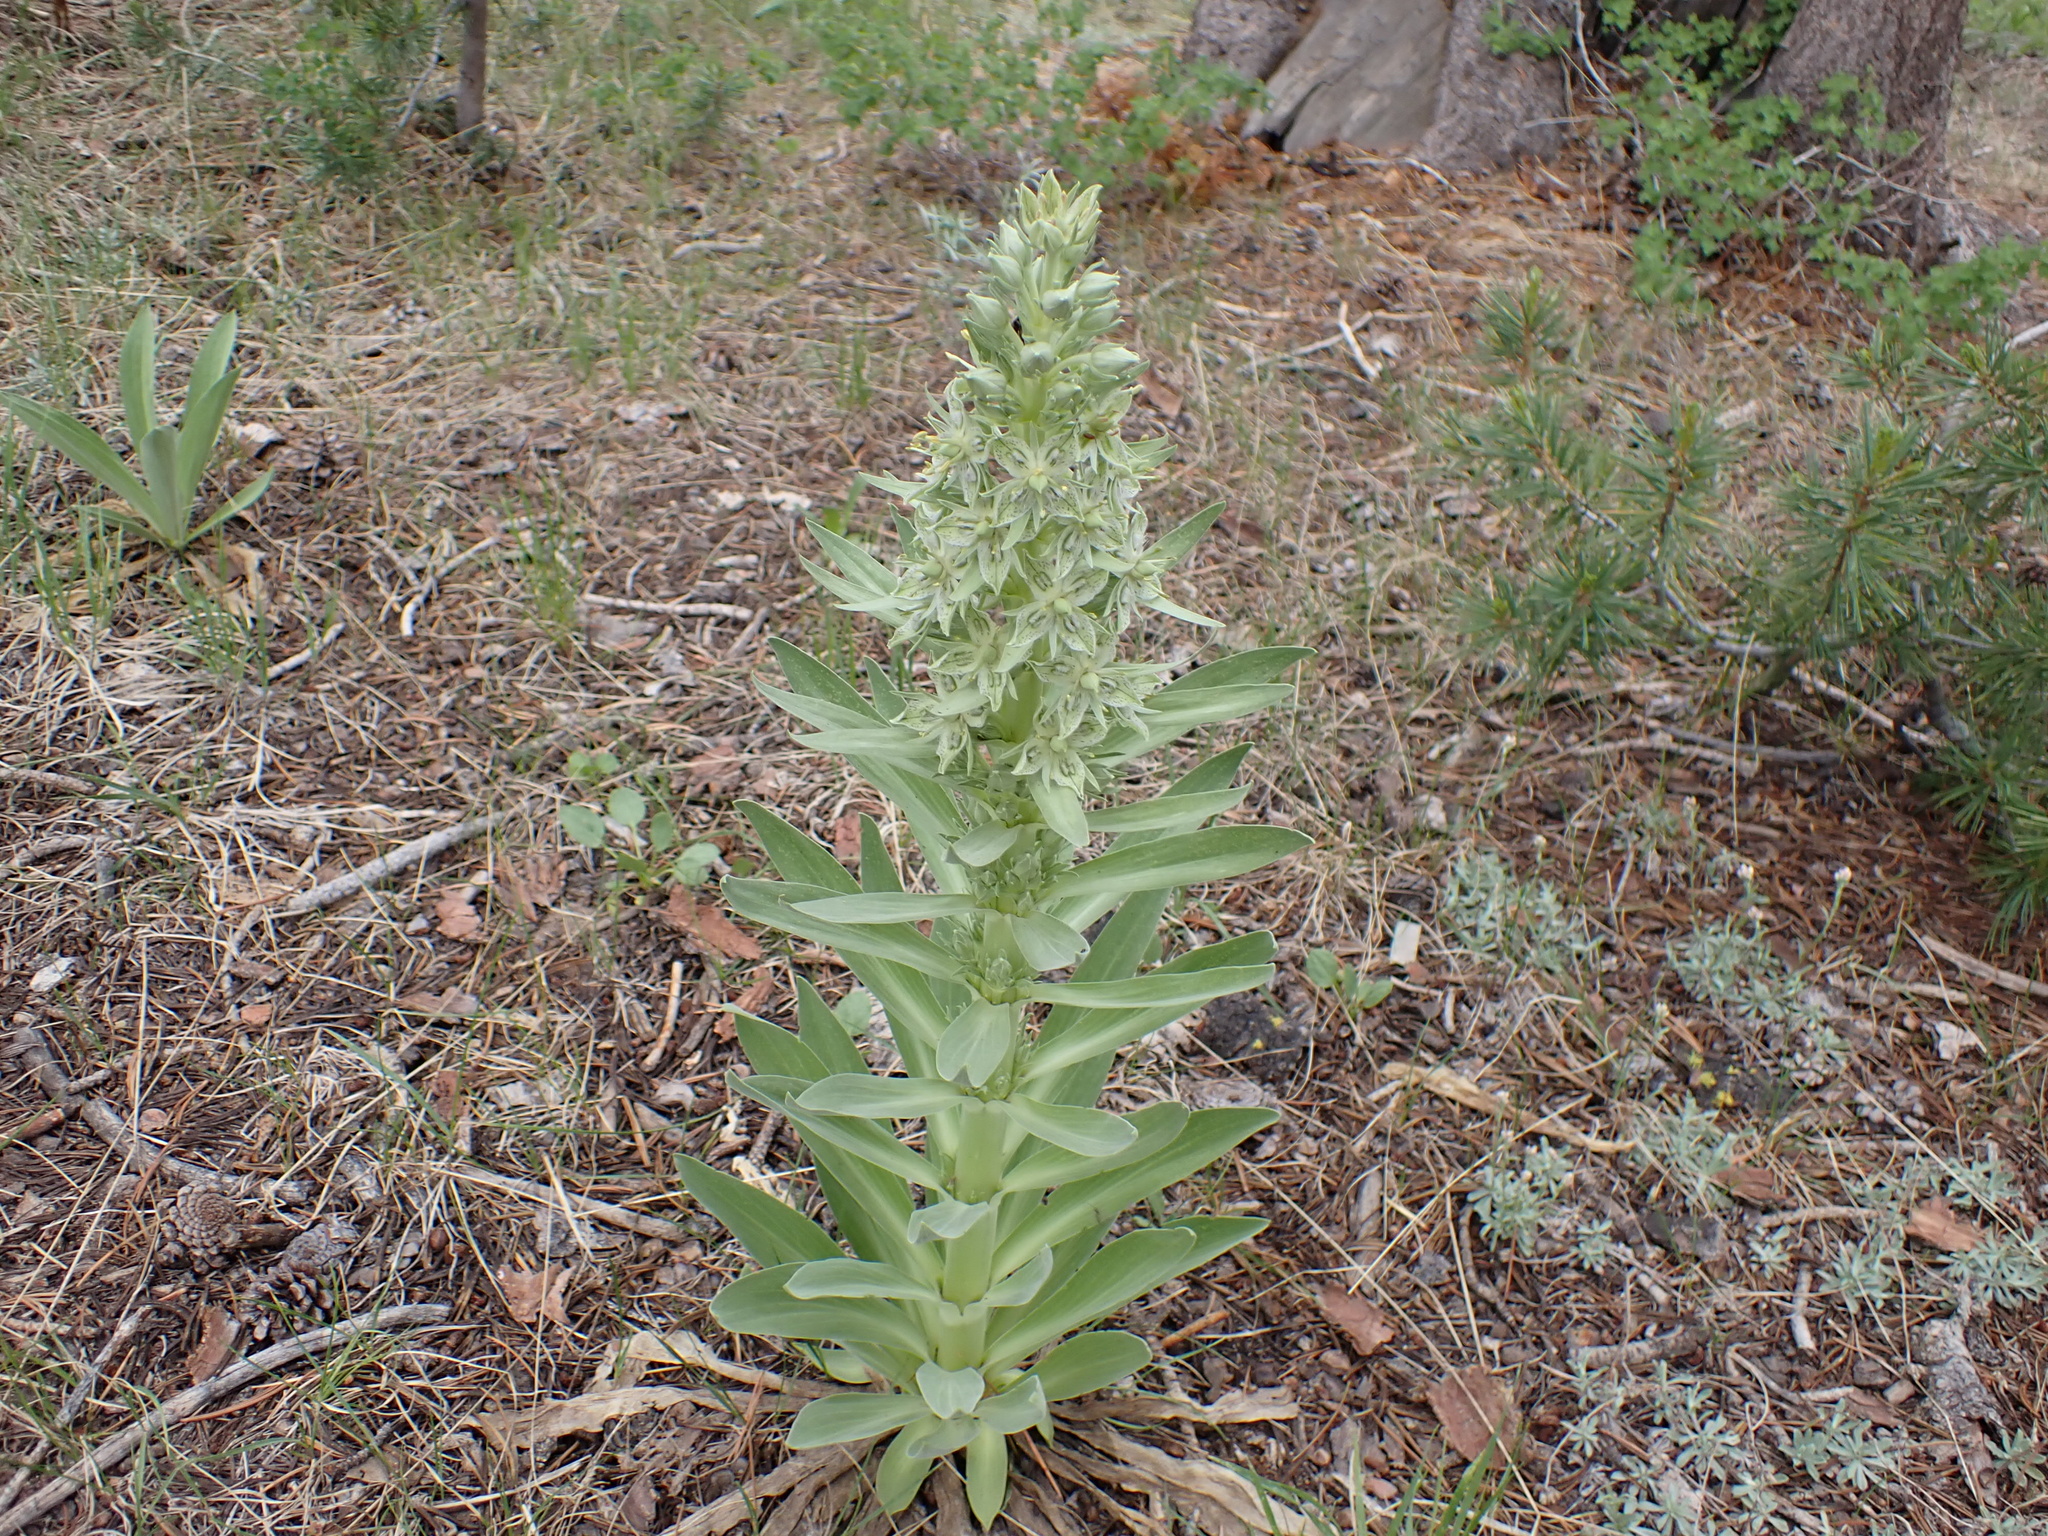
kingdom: Plantae
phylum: Tracheophyta
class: Magnoliopsida
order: Gentianales
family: Gentianaceae
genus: Frasera
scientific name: Frasera speciosa
